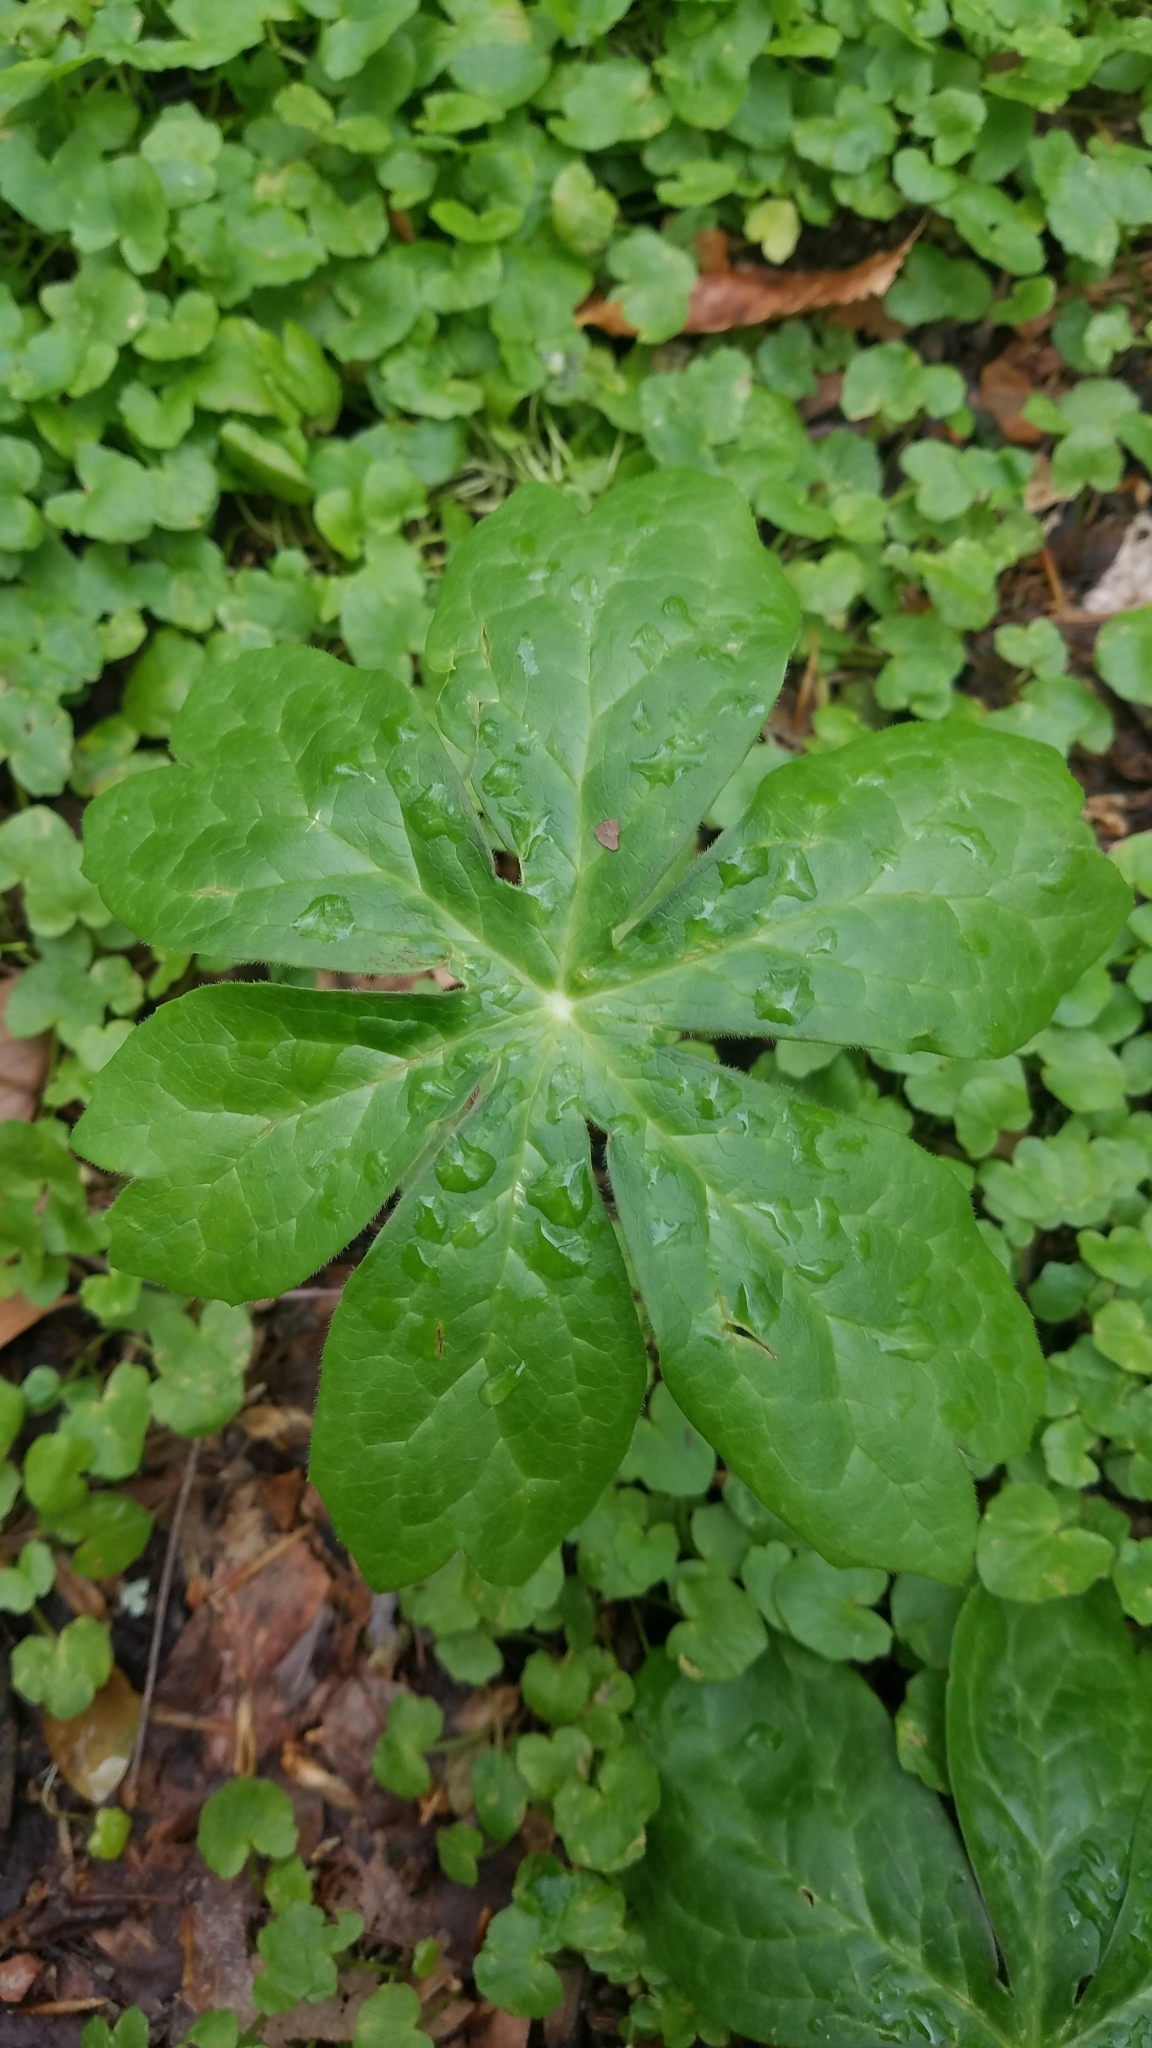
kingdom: Plantae
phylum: Tracheophyta
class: Magnoliopsida
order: Ranunculales
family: Berberidaceae
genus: Podophyllum
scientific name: Podophyllum peltatum
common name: Wild mandrake
